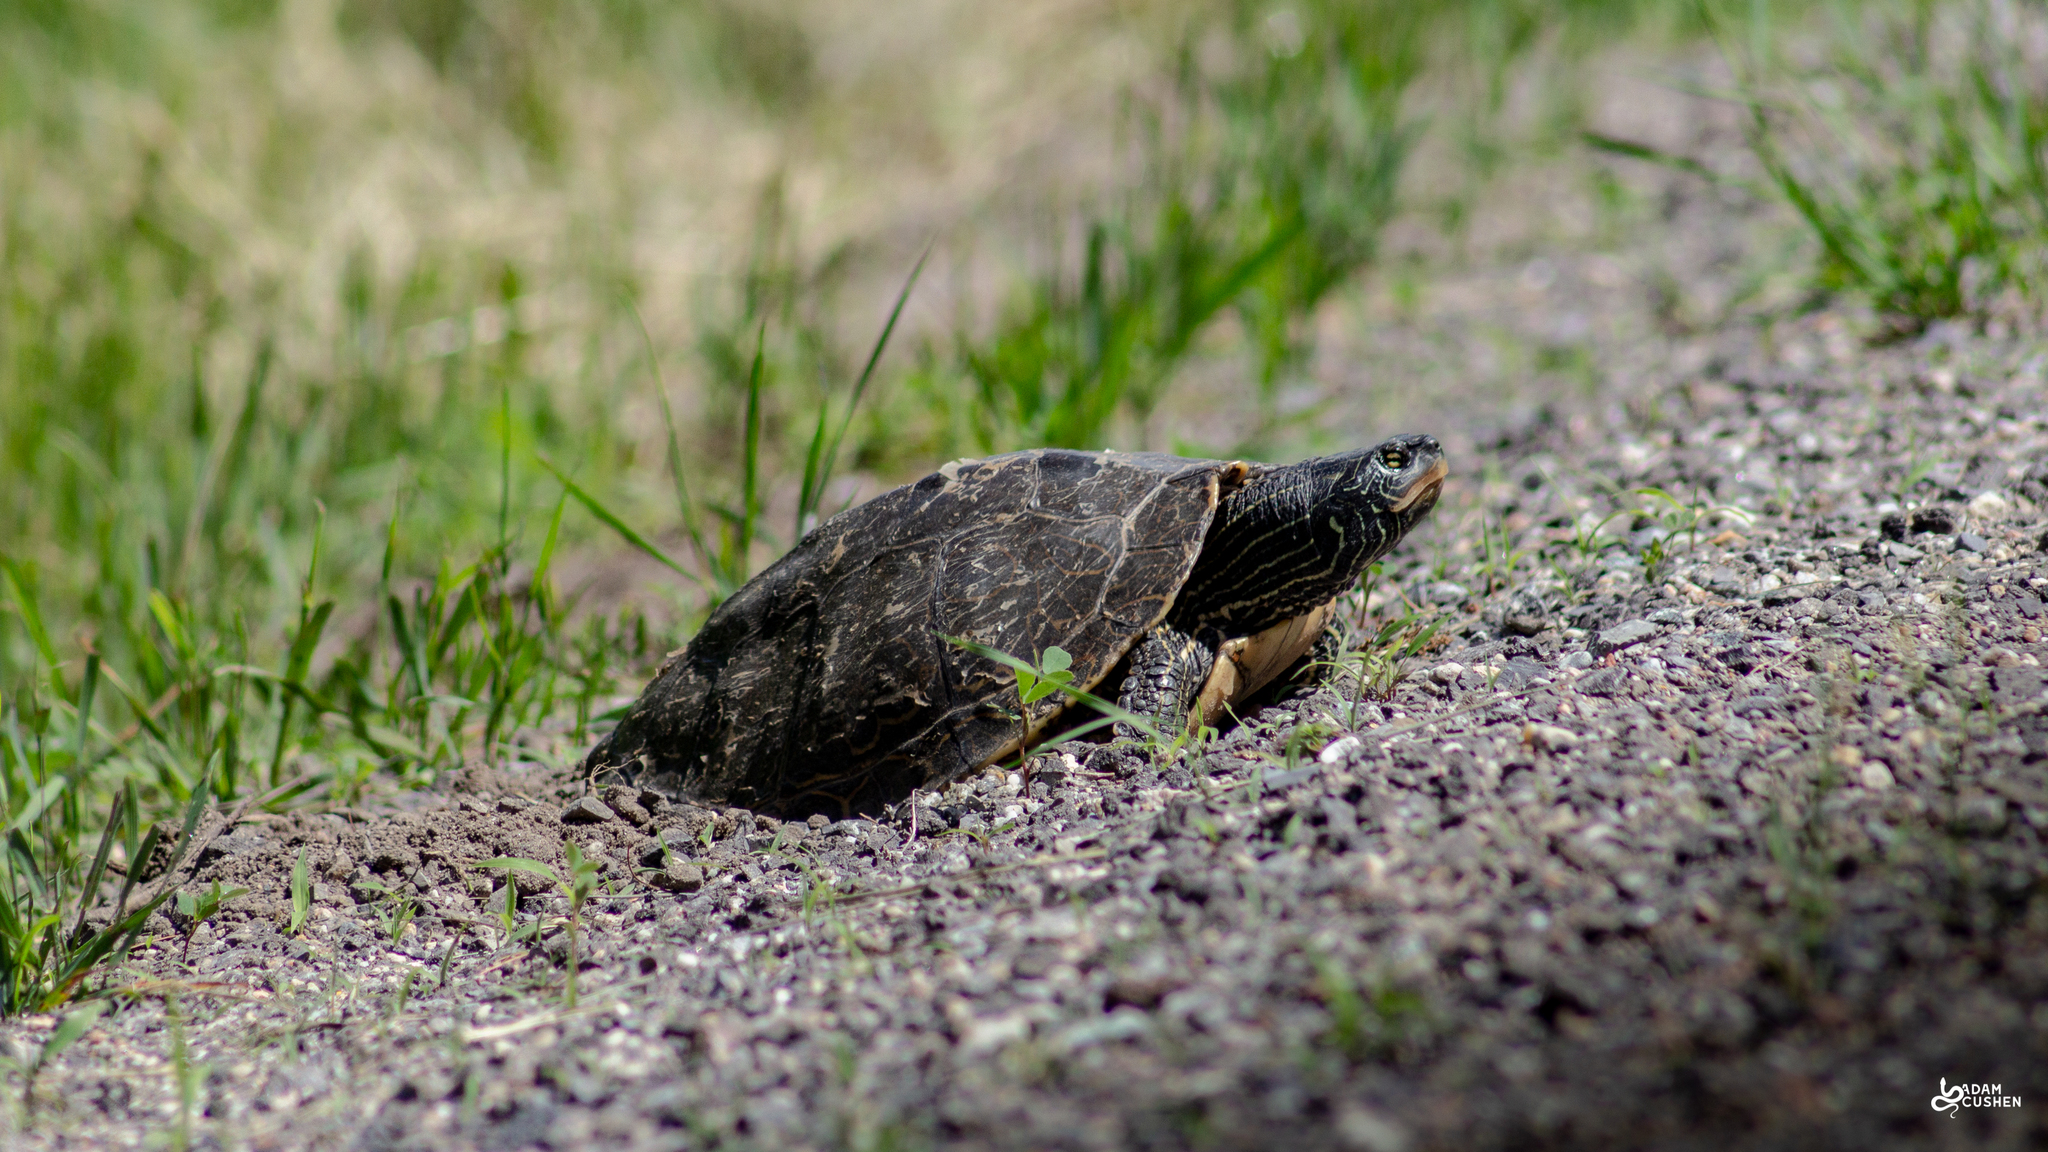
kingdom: Animalia
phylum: Chordata
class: Testudines
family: Emydidae
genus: Graptemys
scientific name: Graptemys geographica
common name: Common map turtle
